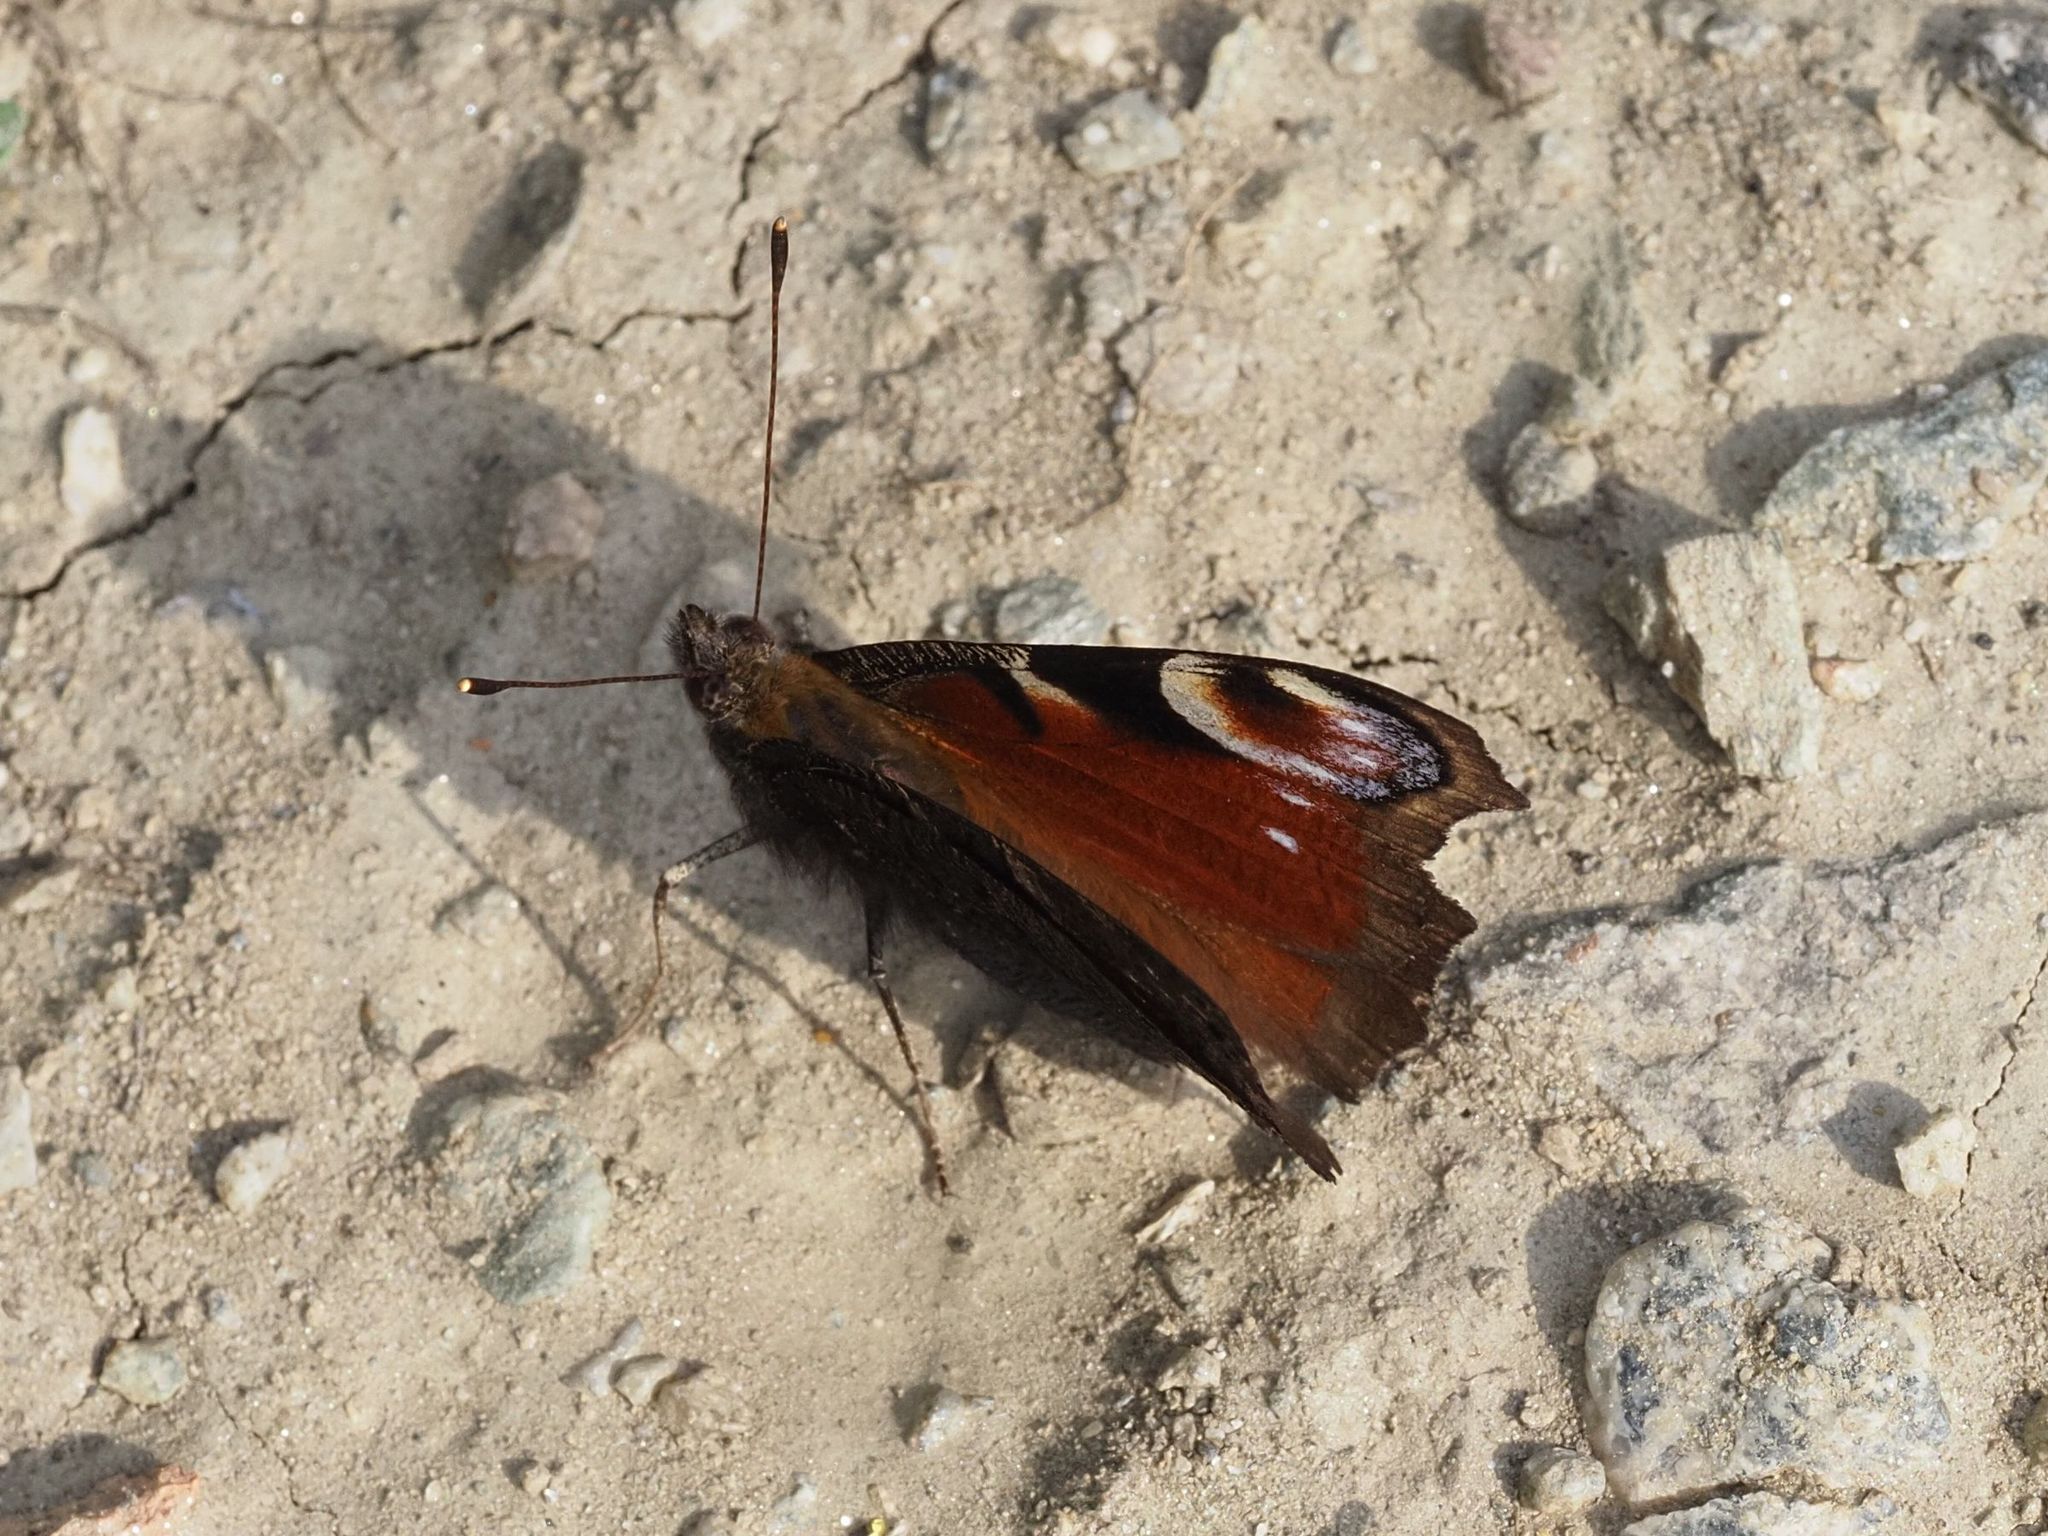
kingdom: Animalia
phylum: Arthropoda
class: Insecta
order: Lepidoptera
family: Nymphalidae
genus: Aglais
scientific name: Aglais io
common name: Peacock
